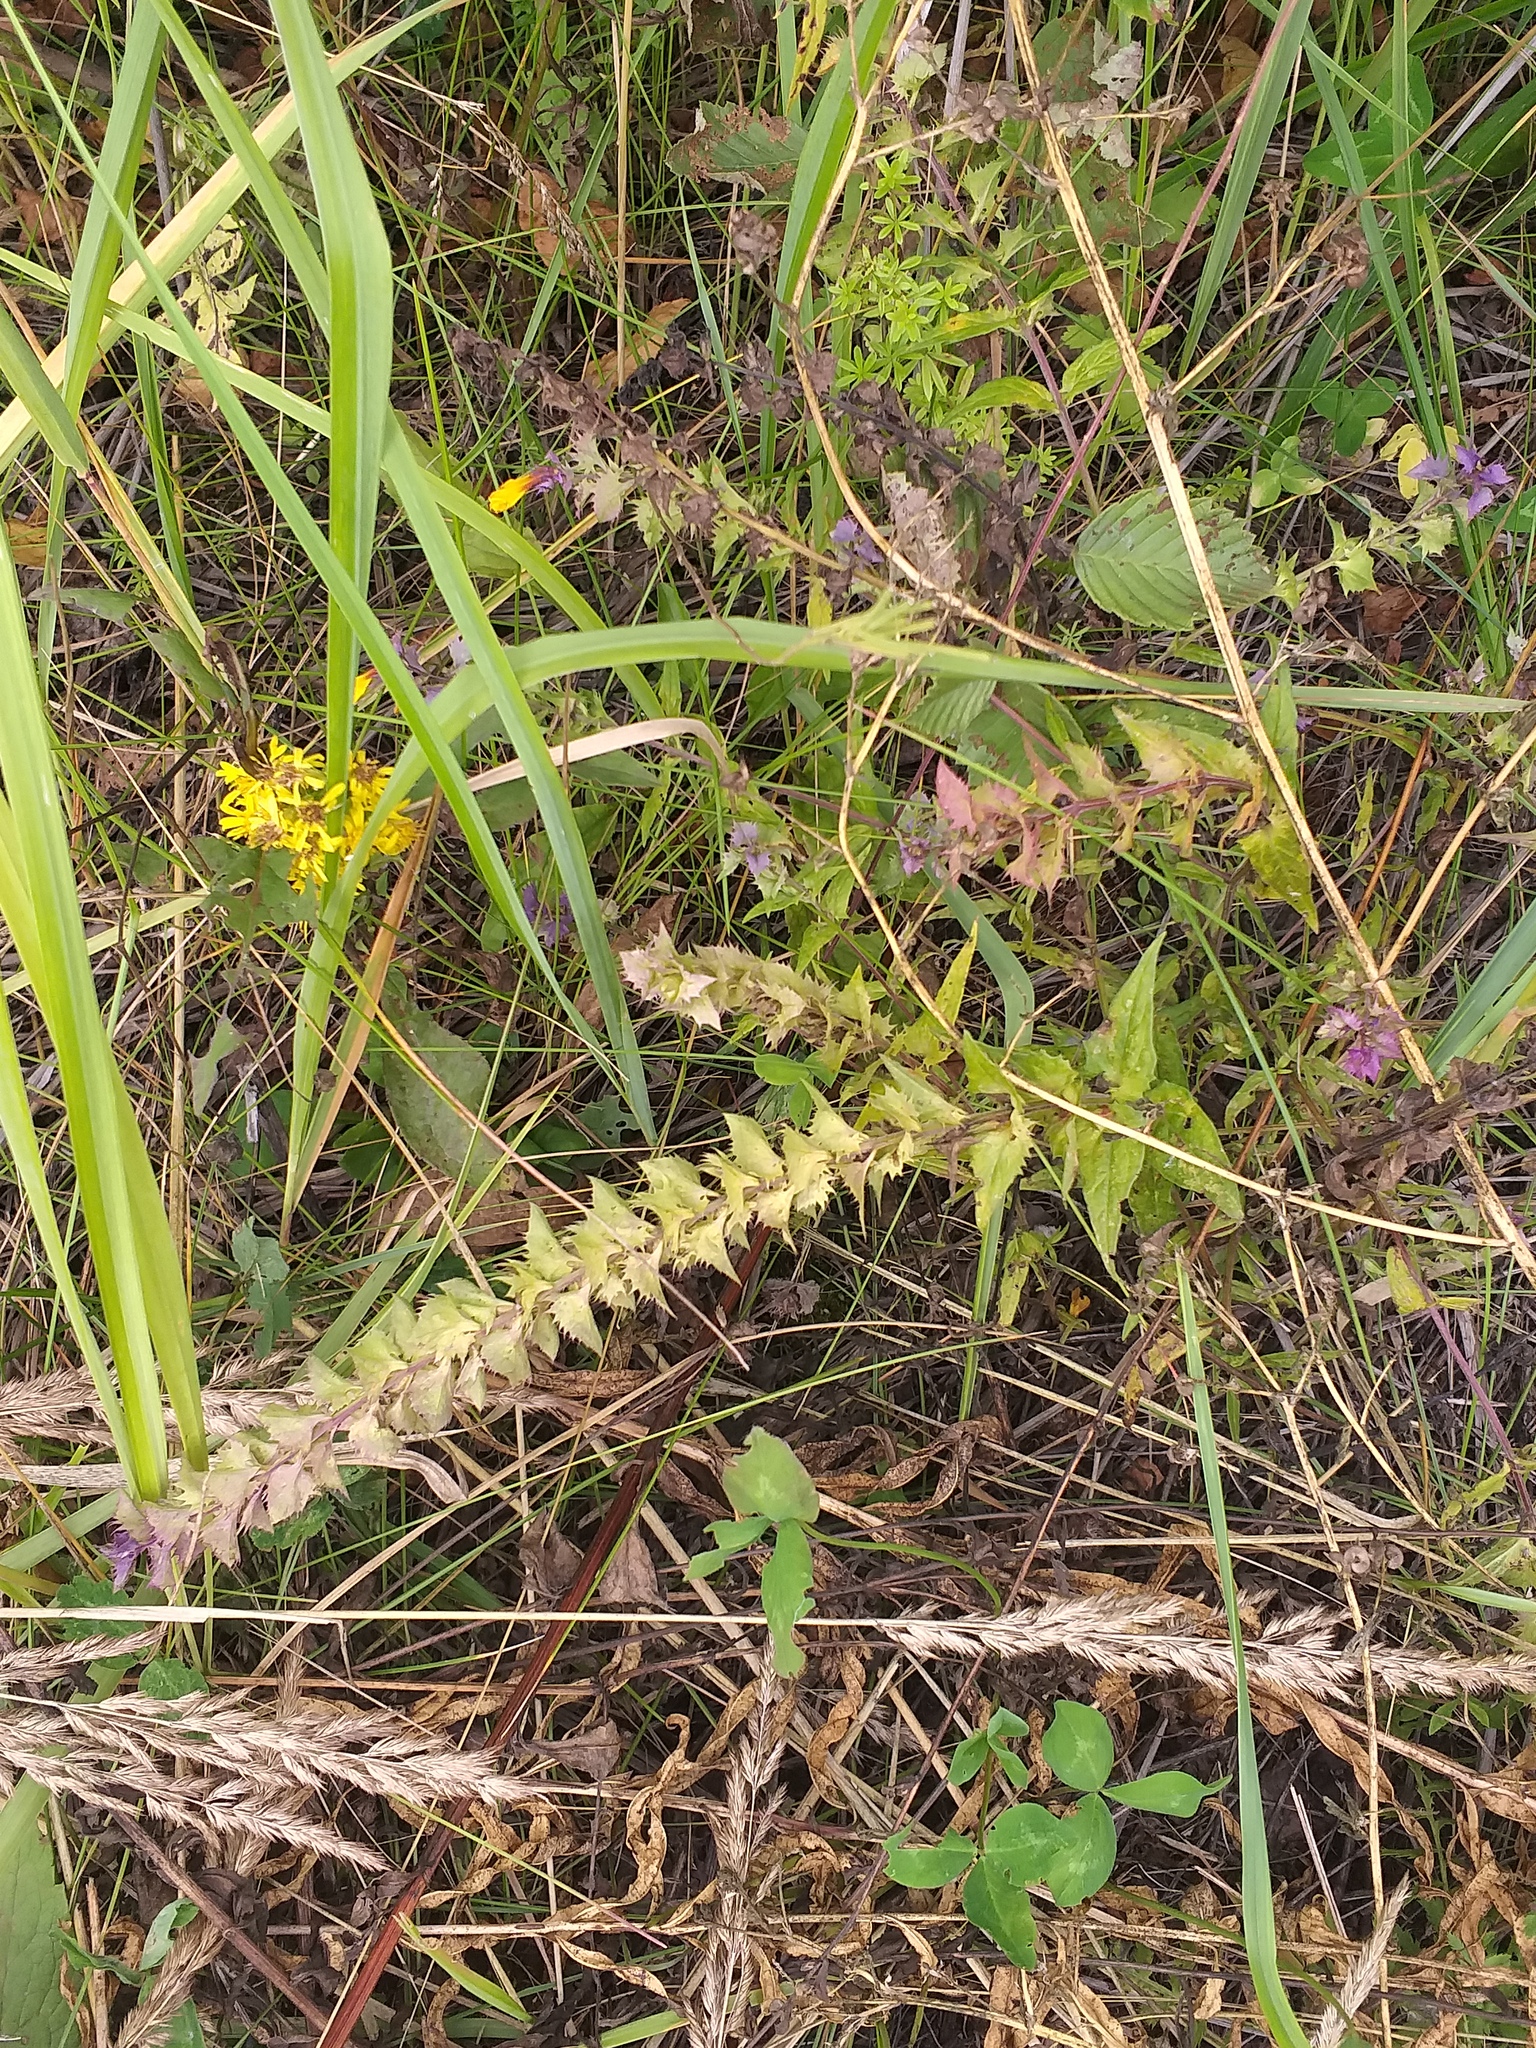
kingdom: Plantae
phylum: Tracheophyta
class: Magnoliopsida
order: Lamiales
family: Orobanchaceae
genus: Melampyrum
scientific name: Melampyrum nemorosum
